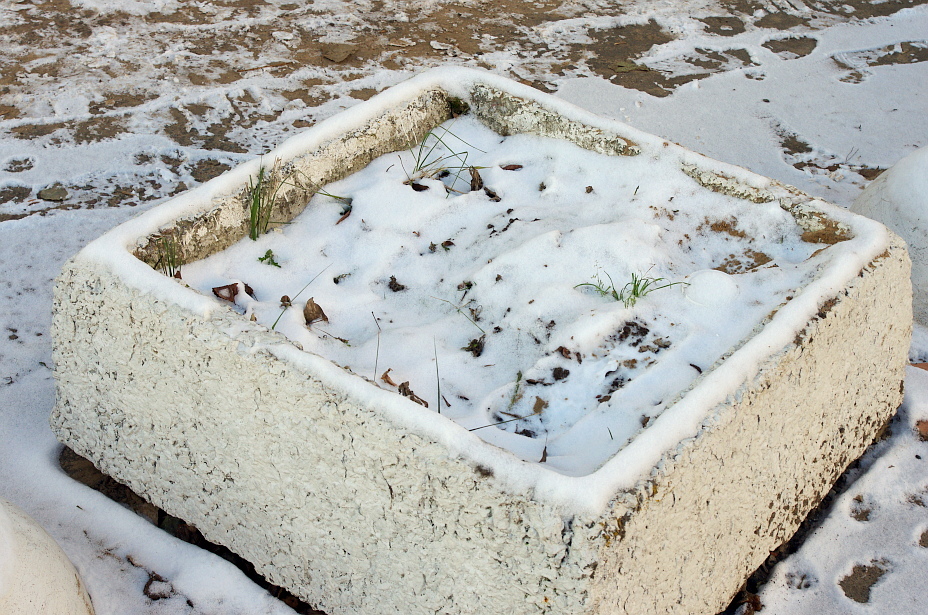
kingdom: Plantae
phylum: Tracheophyta
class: Liliopsida
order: Poales
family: Poaceae
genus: Poa
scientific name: Poa annua
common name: Annual bluegrass
